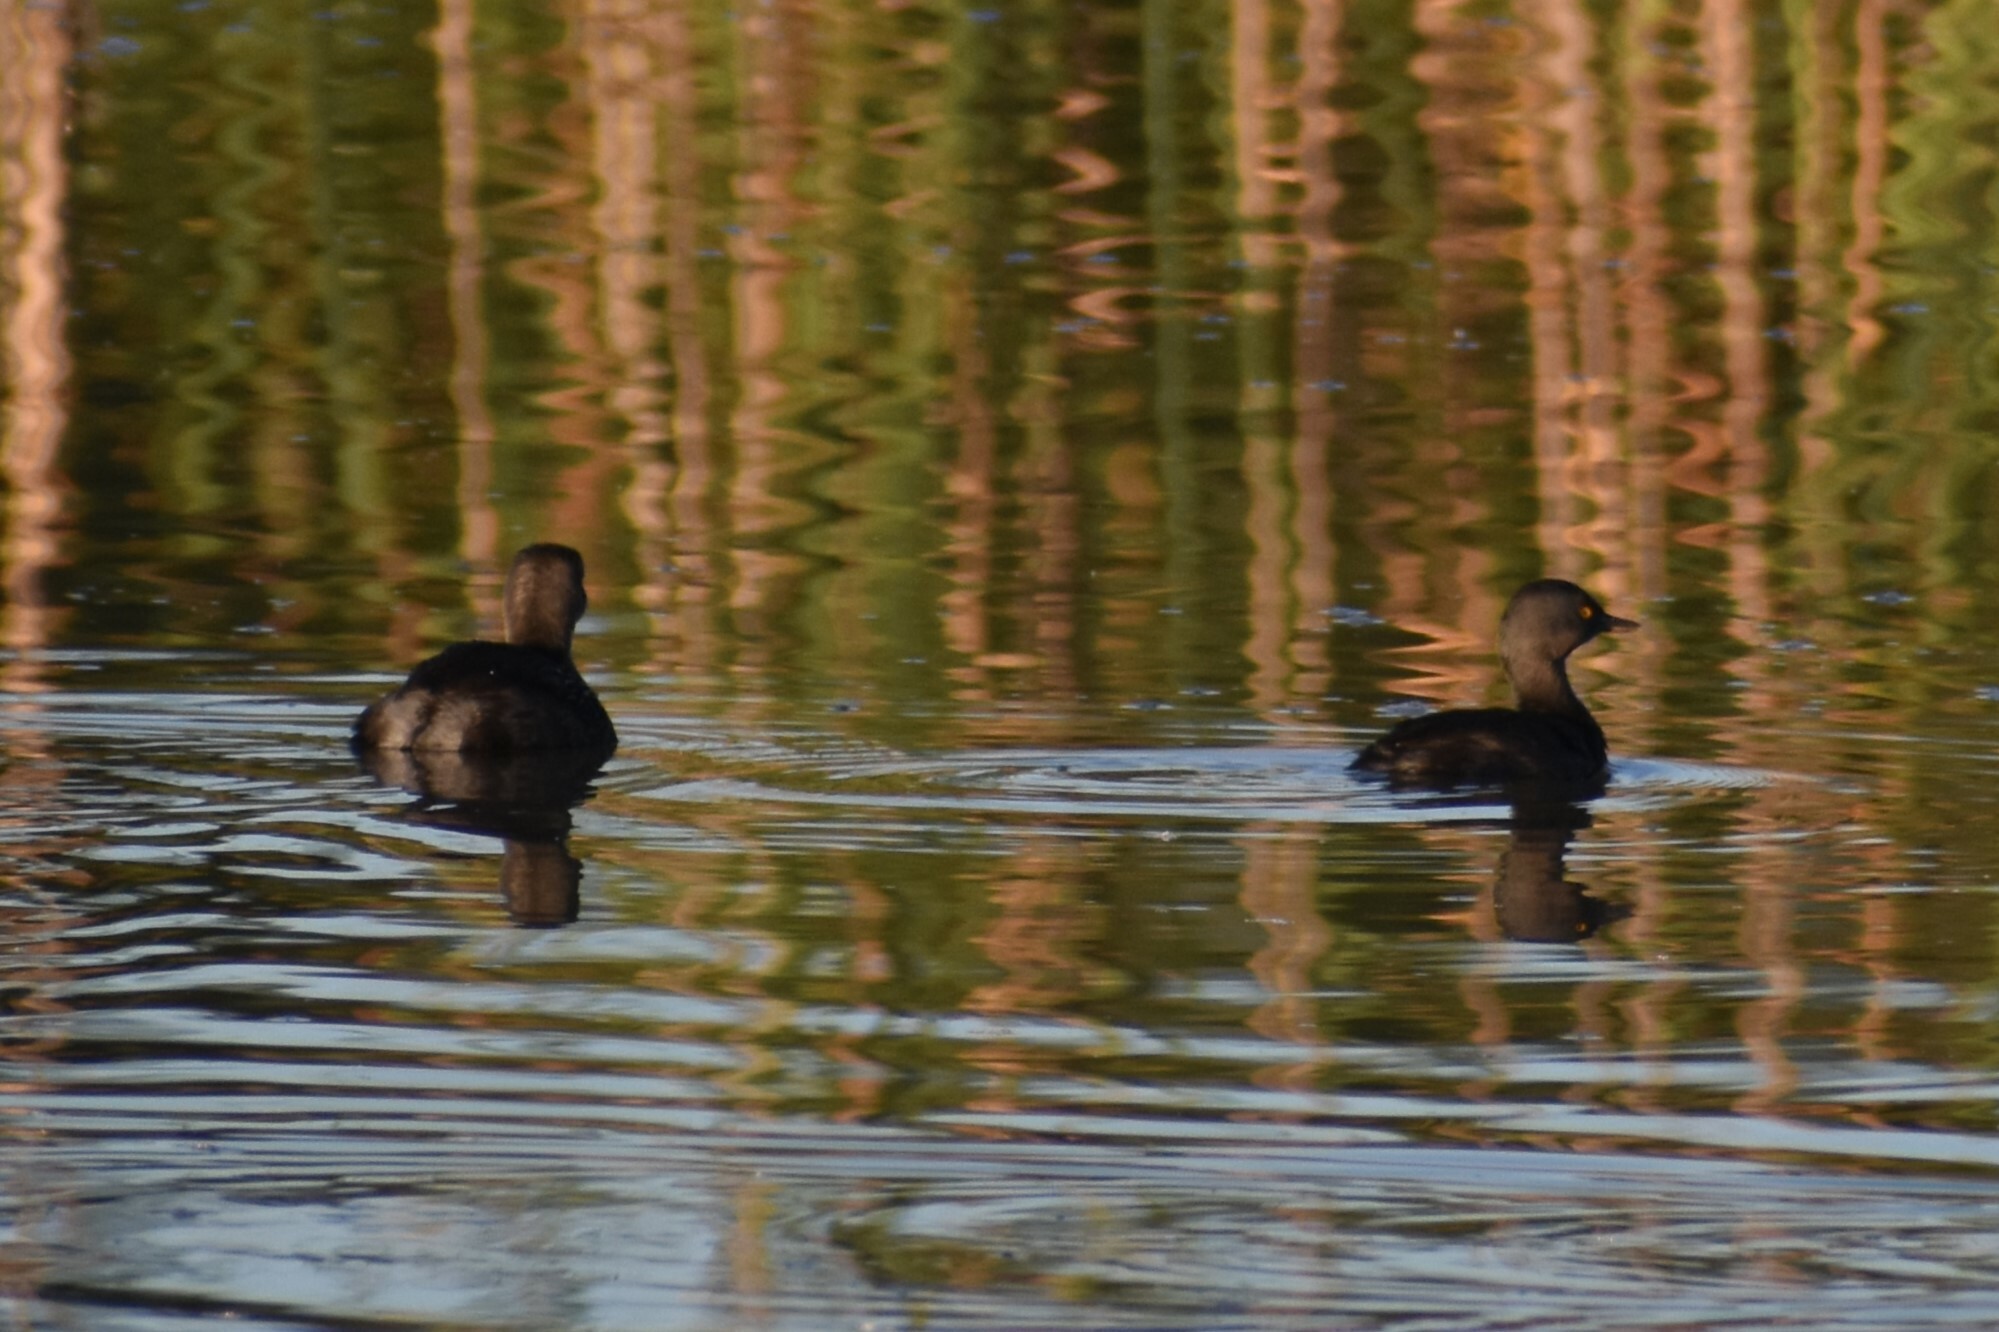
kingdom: Animalia
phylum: Chordata
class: Aves
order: Podicipediformes
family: Podicipedidae
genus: Tachybaptus
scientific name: Tachybaptus dominicus
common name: Least grebe
